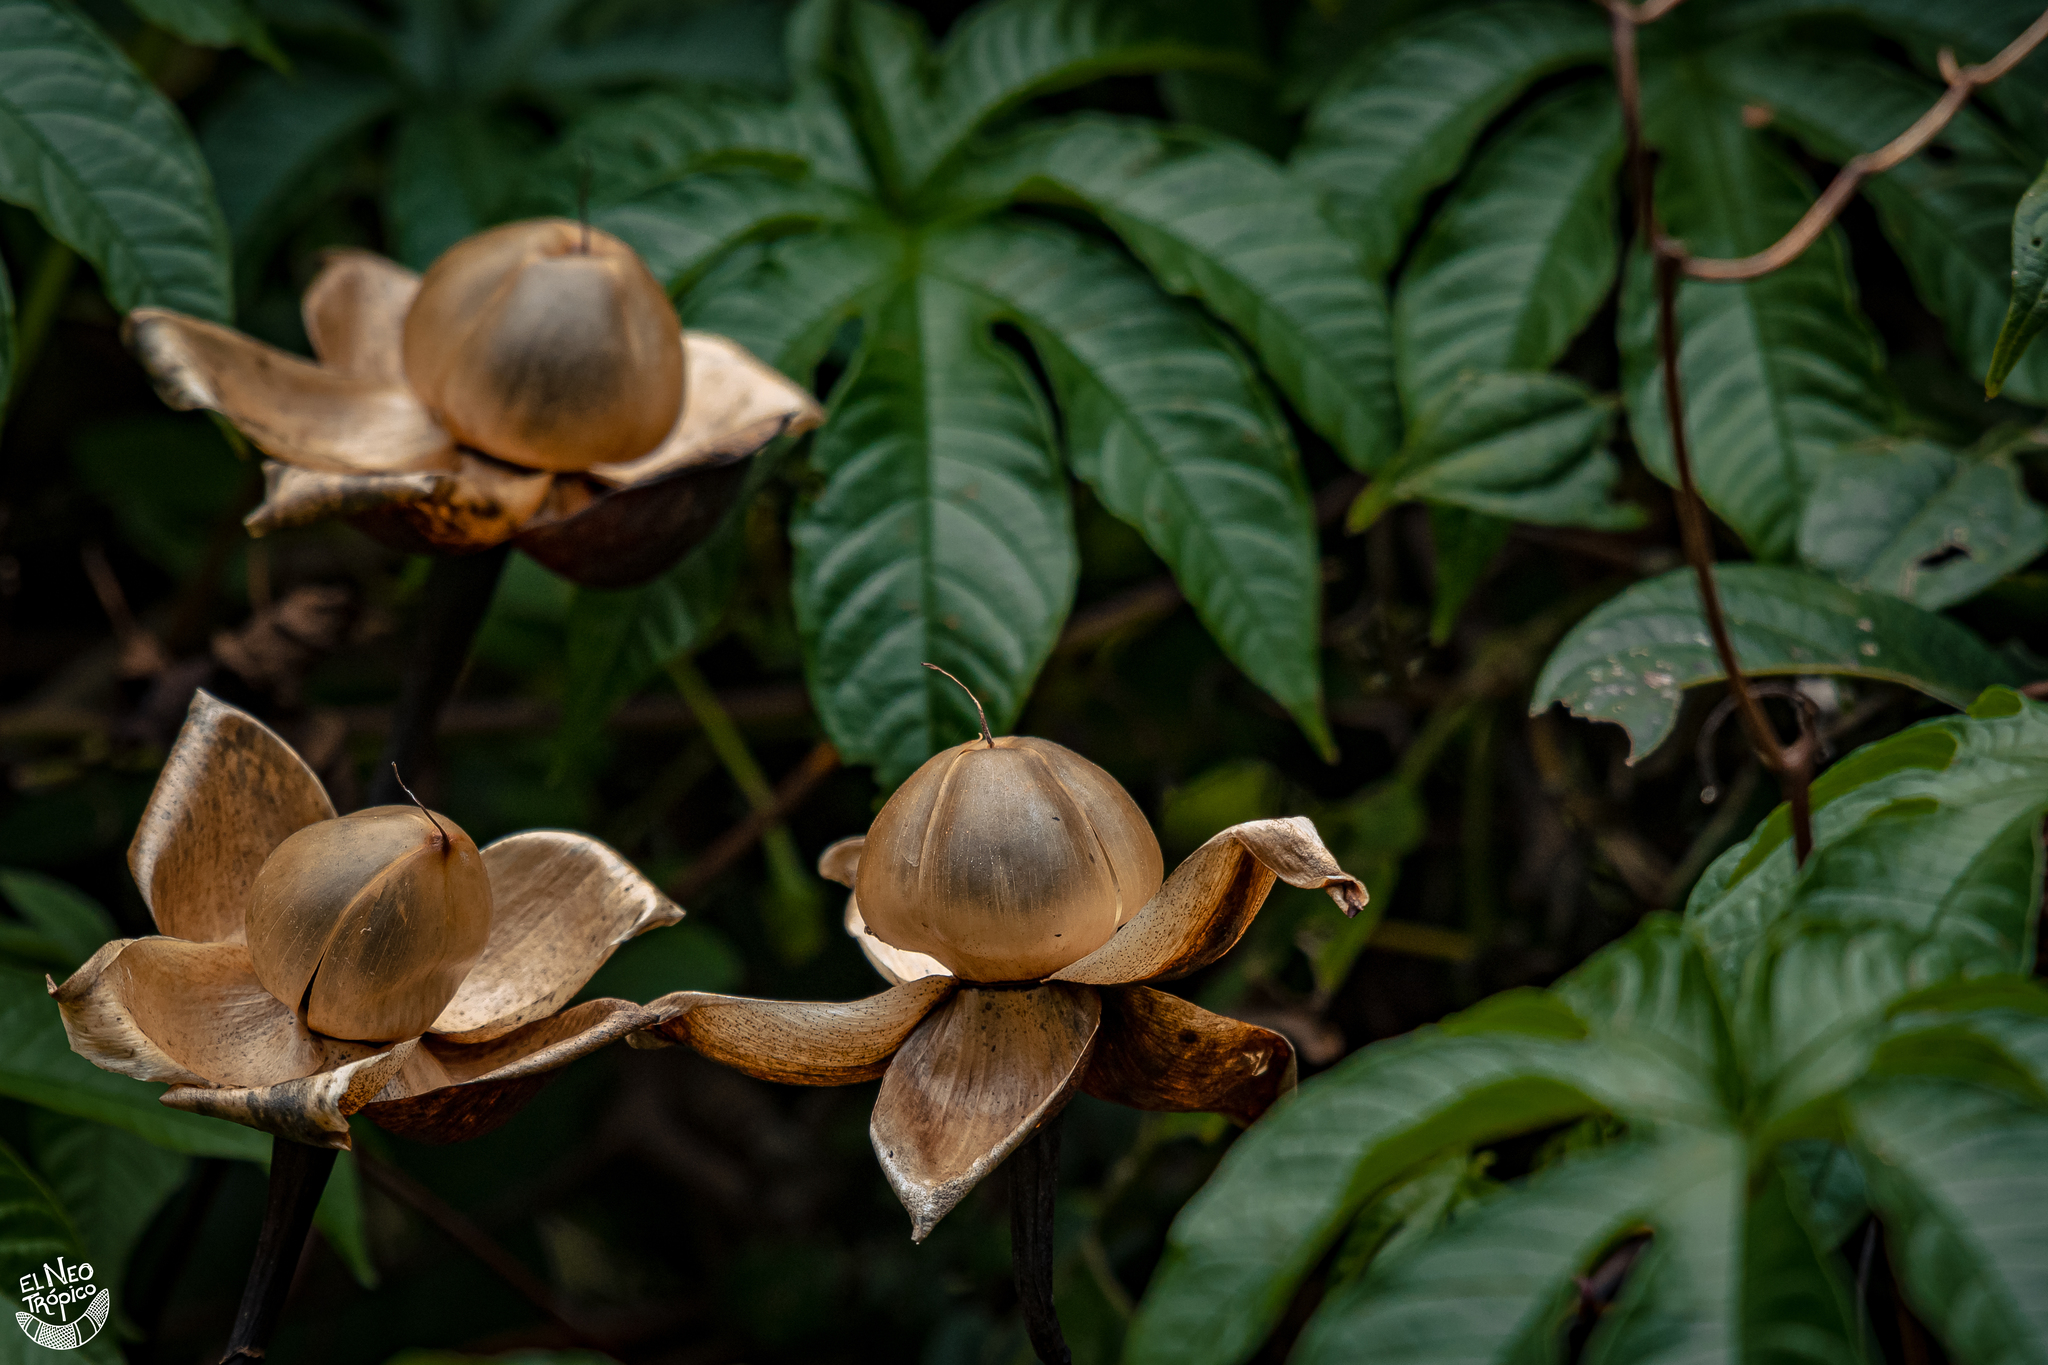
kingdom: Plantae
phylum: Tracheophyta
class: Magnoliopsida
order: Solanales
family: Convolvulaceae
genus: Distimake
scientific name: Distimake tuberosus
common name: Spanish arborvine
